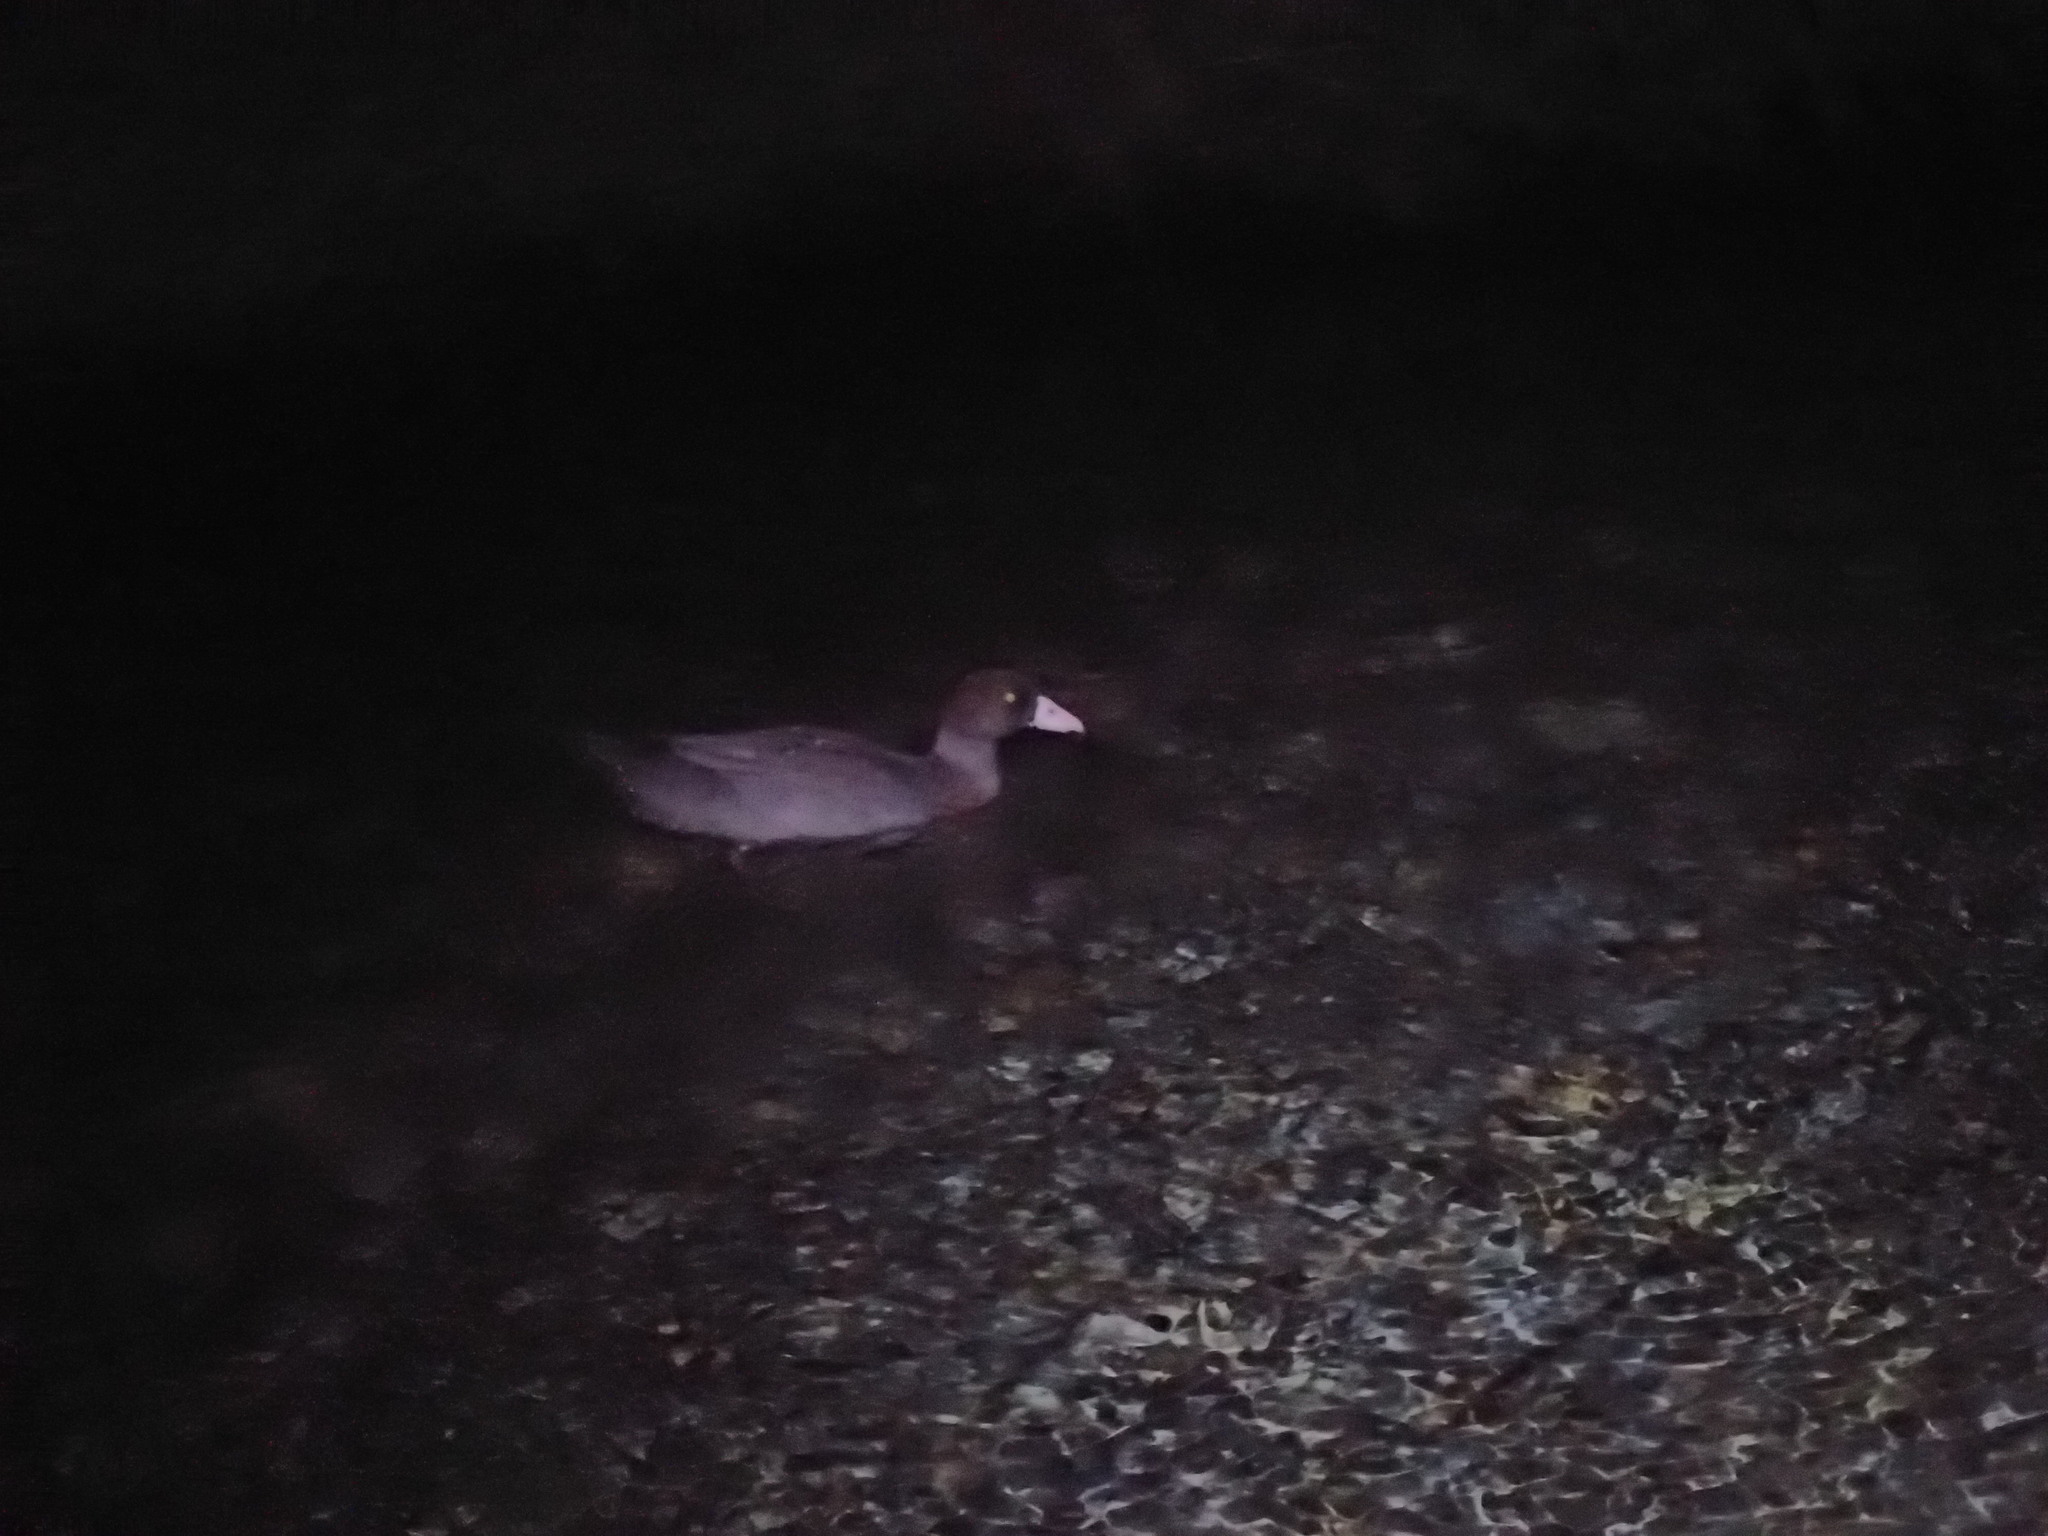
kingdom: Animalia
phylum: Chordata
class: Aves
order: Anseriformes
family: Anatidae
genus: Hymenolaimus
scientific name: Hymenolaimus malacorhynchos
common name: Blue duck
